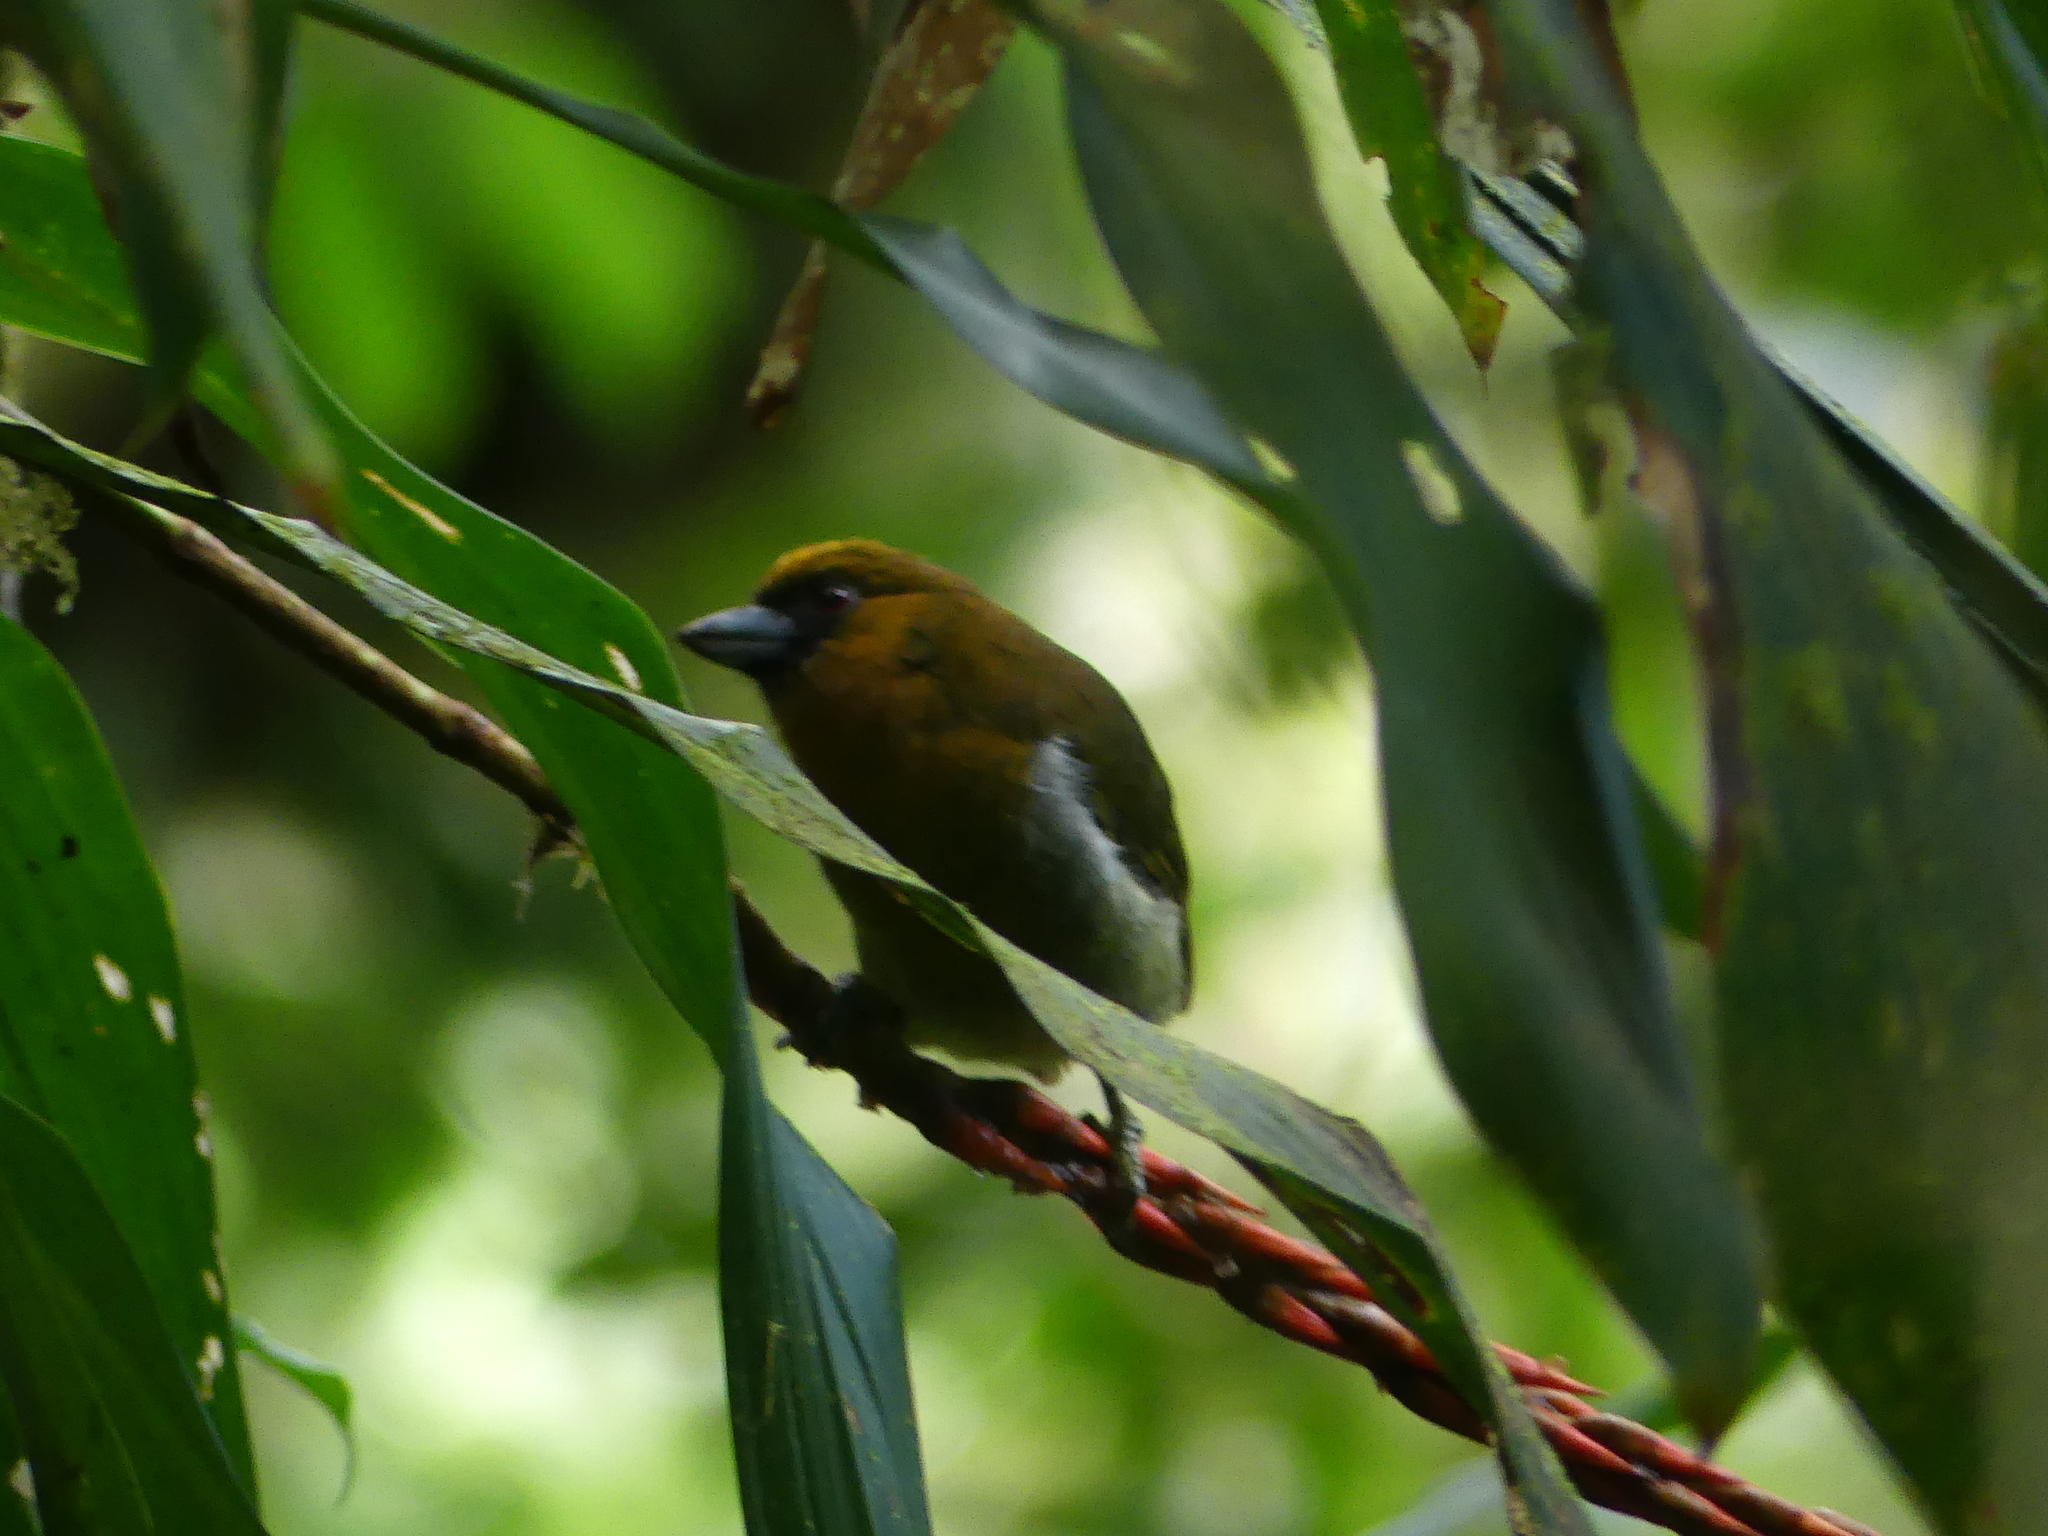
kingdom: Animalia
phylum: Chordata
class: Aves
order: Piciformes
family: Semnornithidae
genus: Semnornis
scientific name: Semnornis frantzii
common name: Prong-billed barbet
